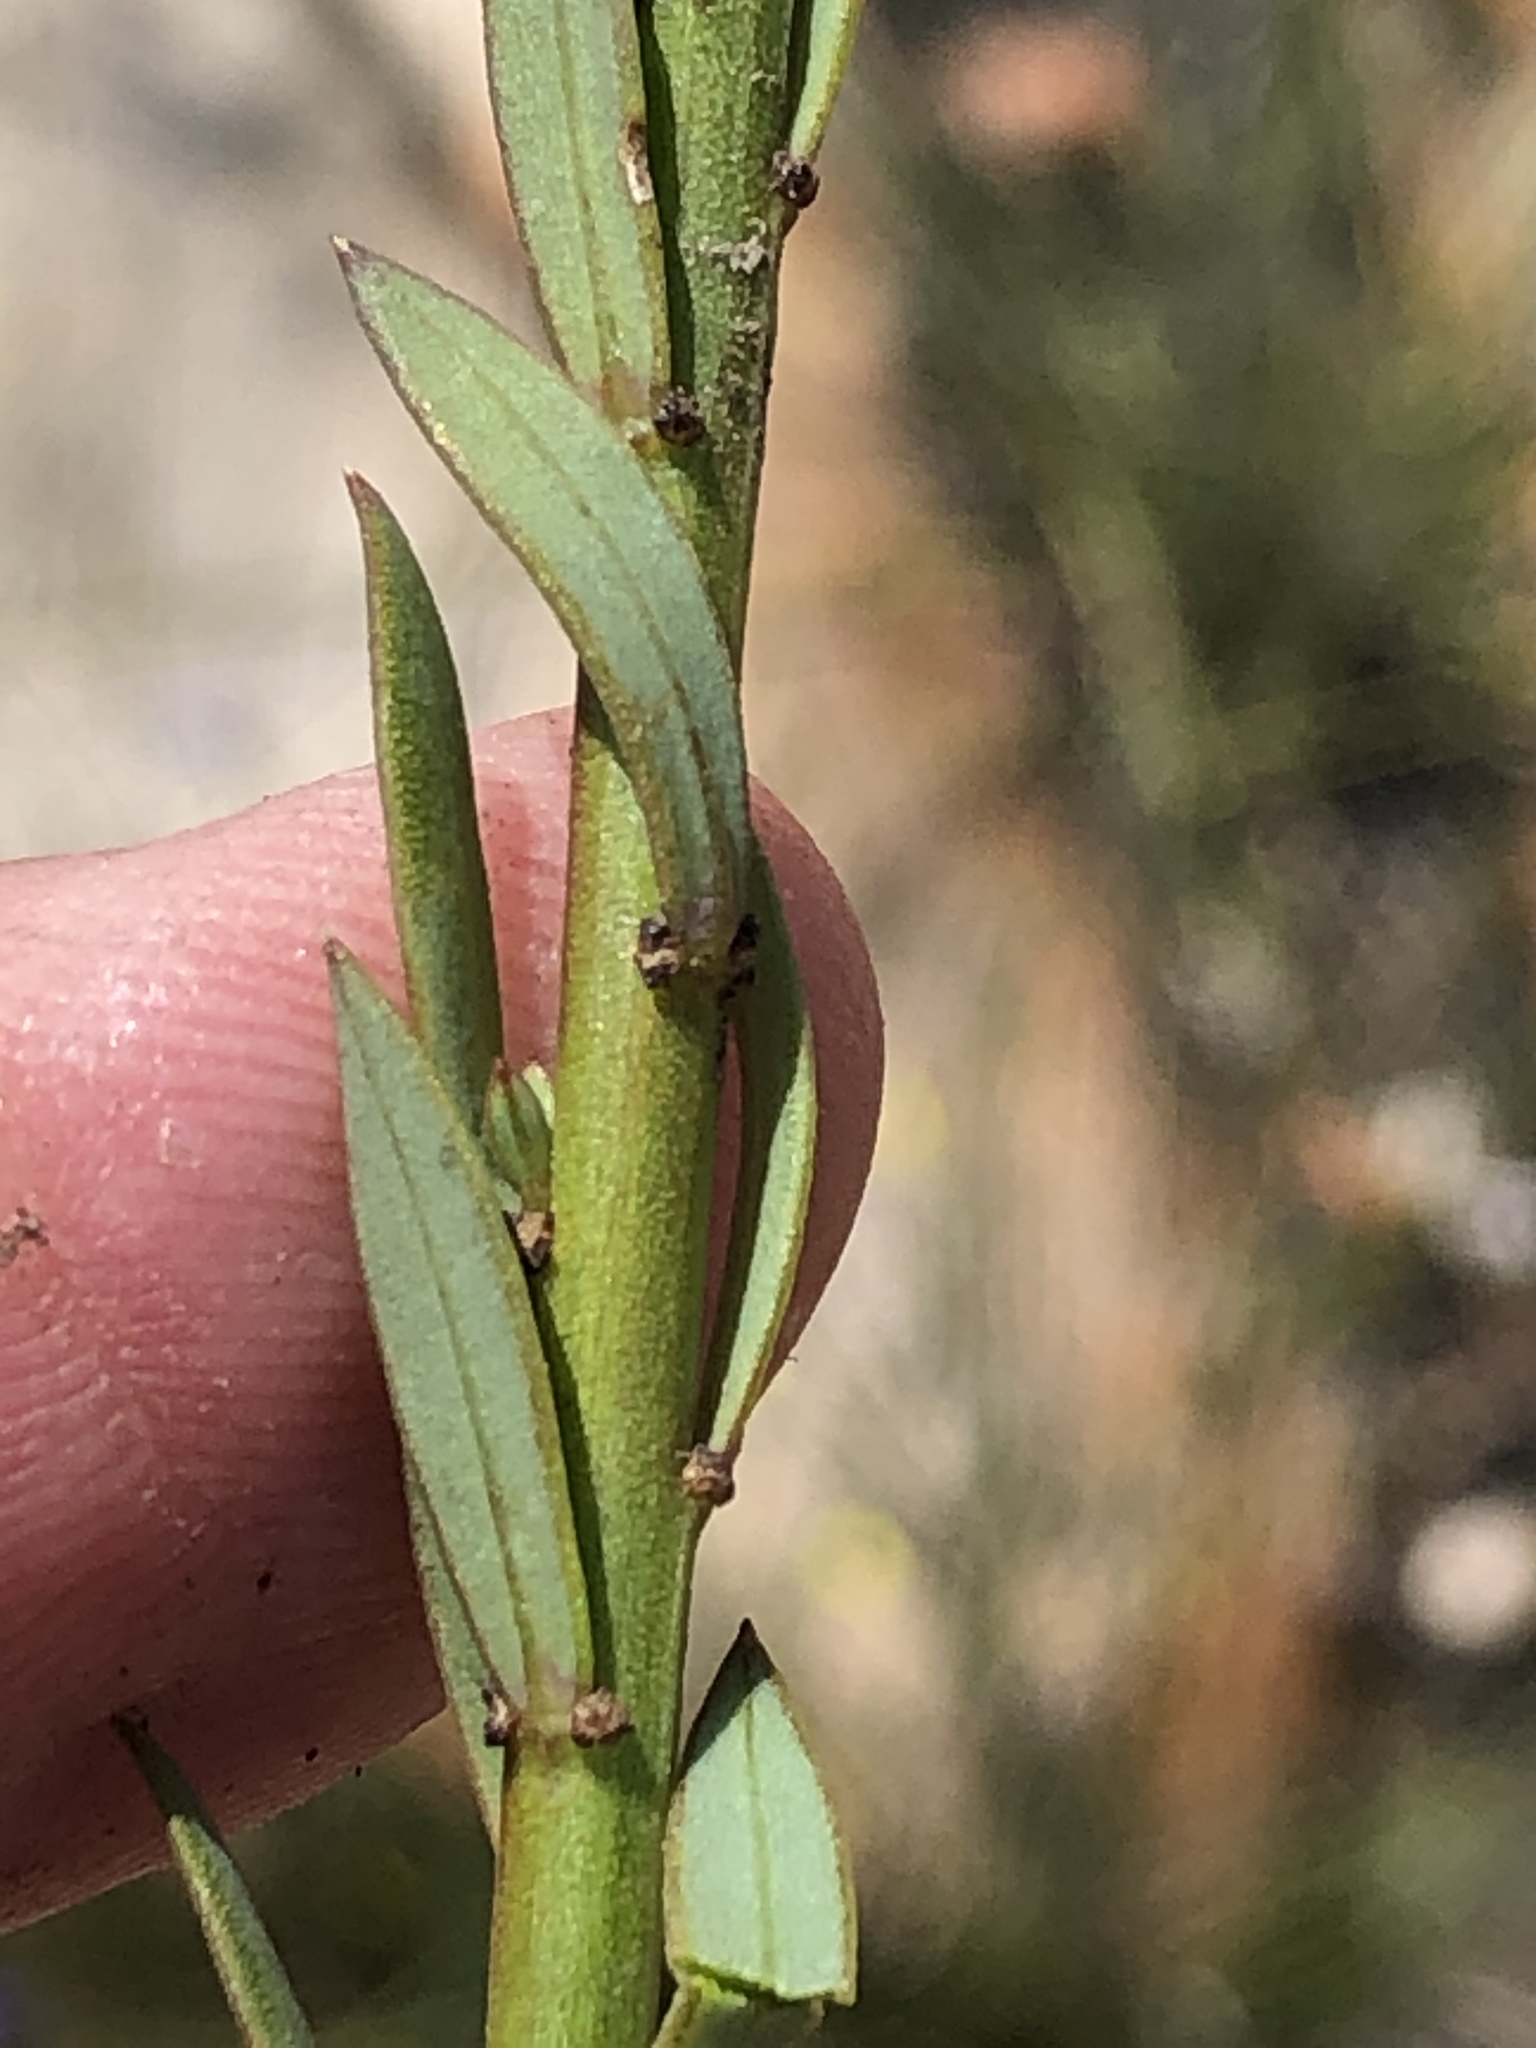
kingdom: Plantae
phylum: Tracheophyta
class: Magnoliopsida
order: Malpighiales
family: Linaceae
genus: Linum
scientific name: Linum africanum
